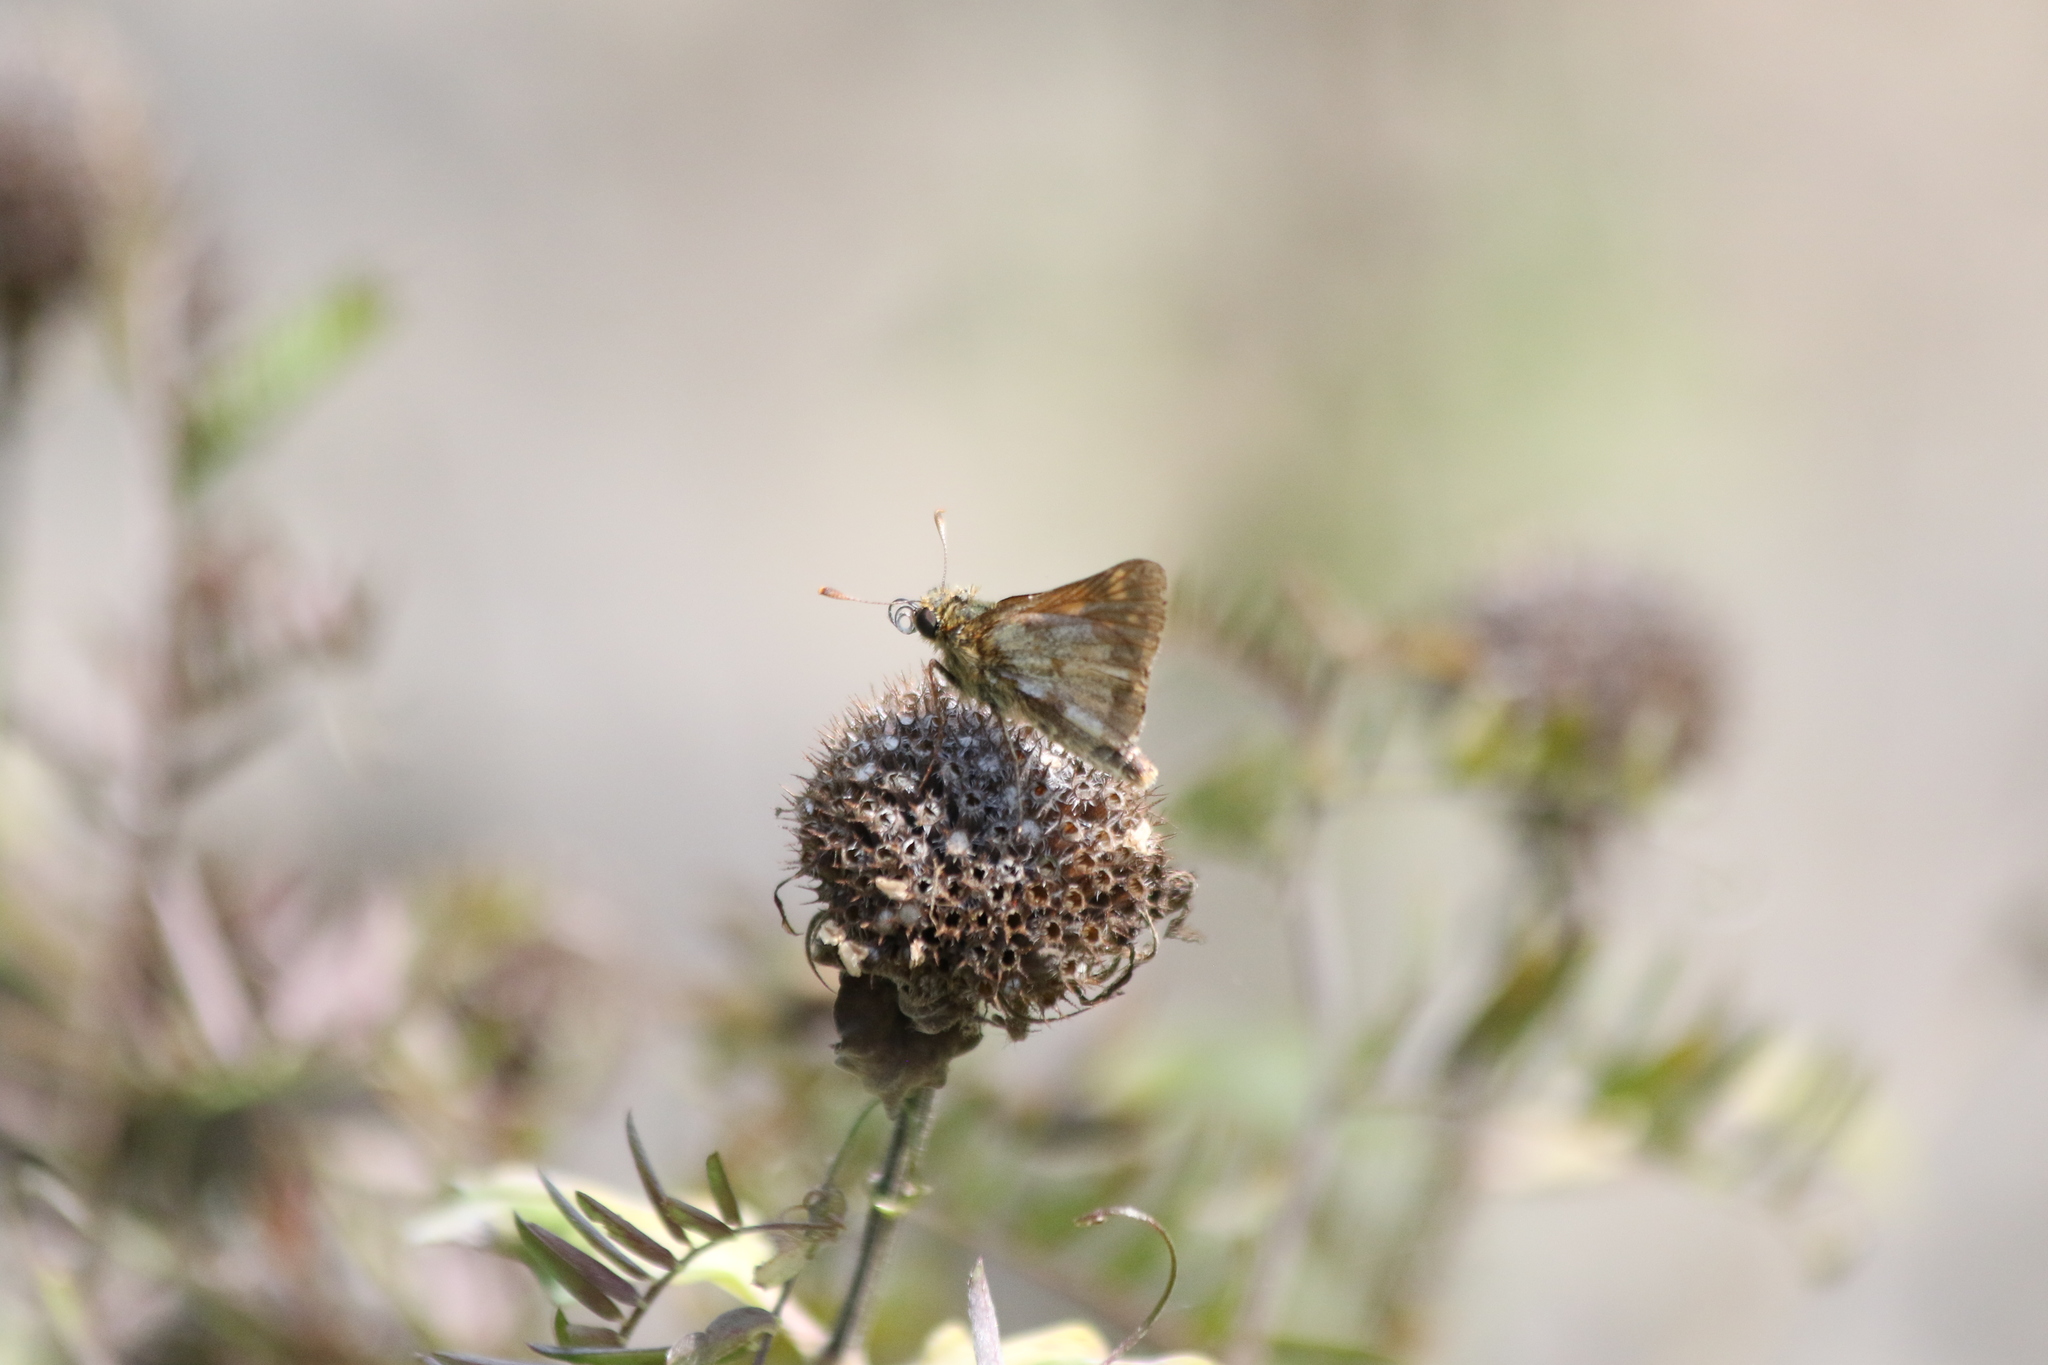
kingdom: Animalia
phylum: Arthropoda
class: Insecta
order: Lepidoptera
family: Hesperiidae
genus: Polites
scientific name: Polites coras
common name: Peck's skipper
